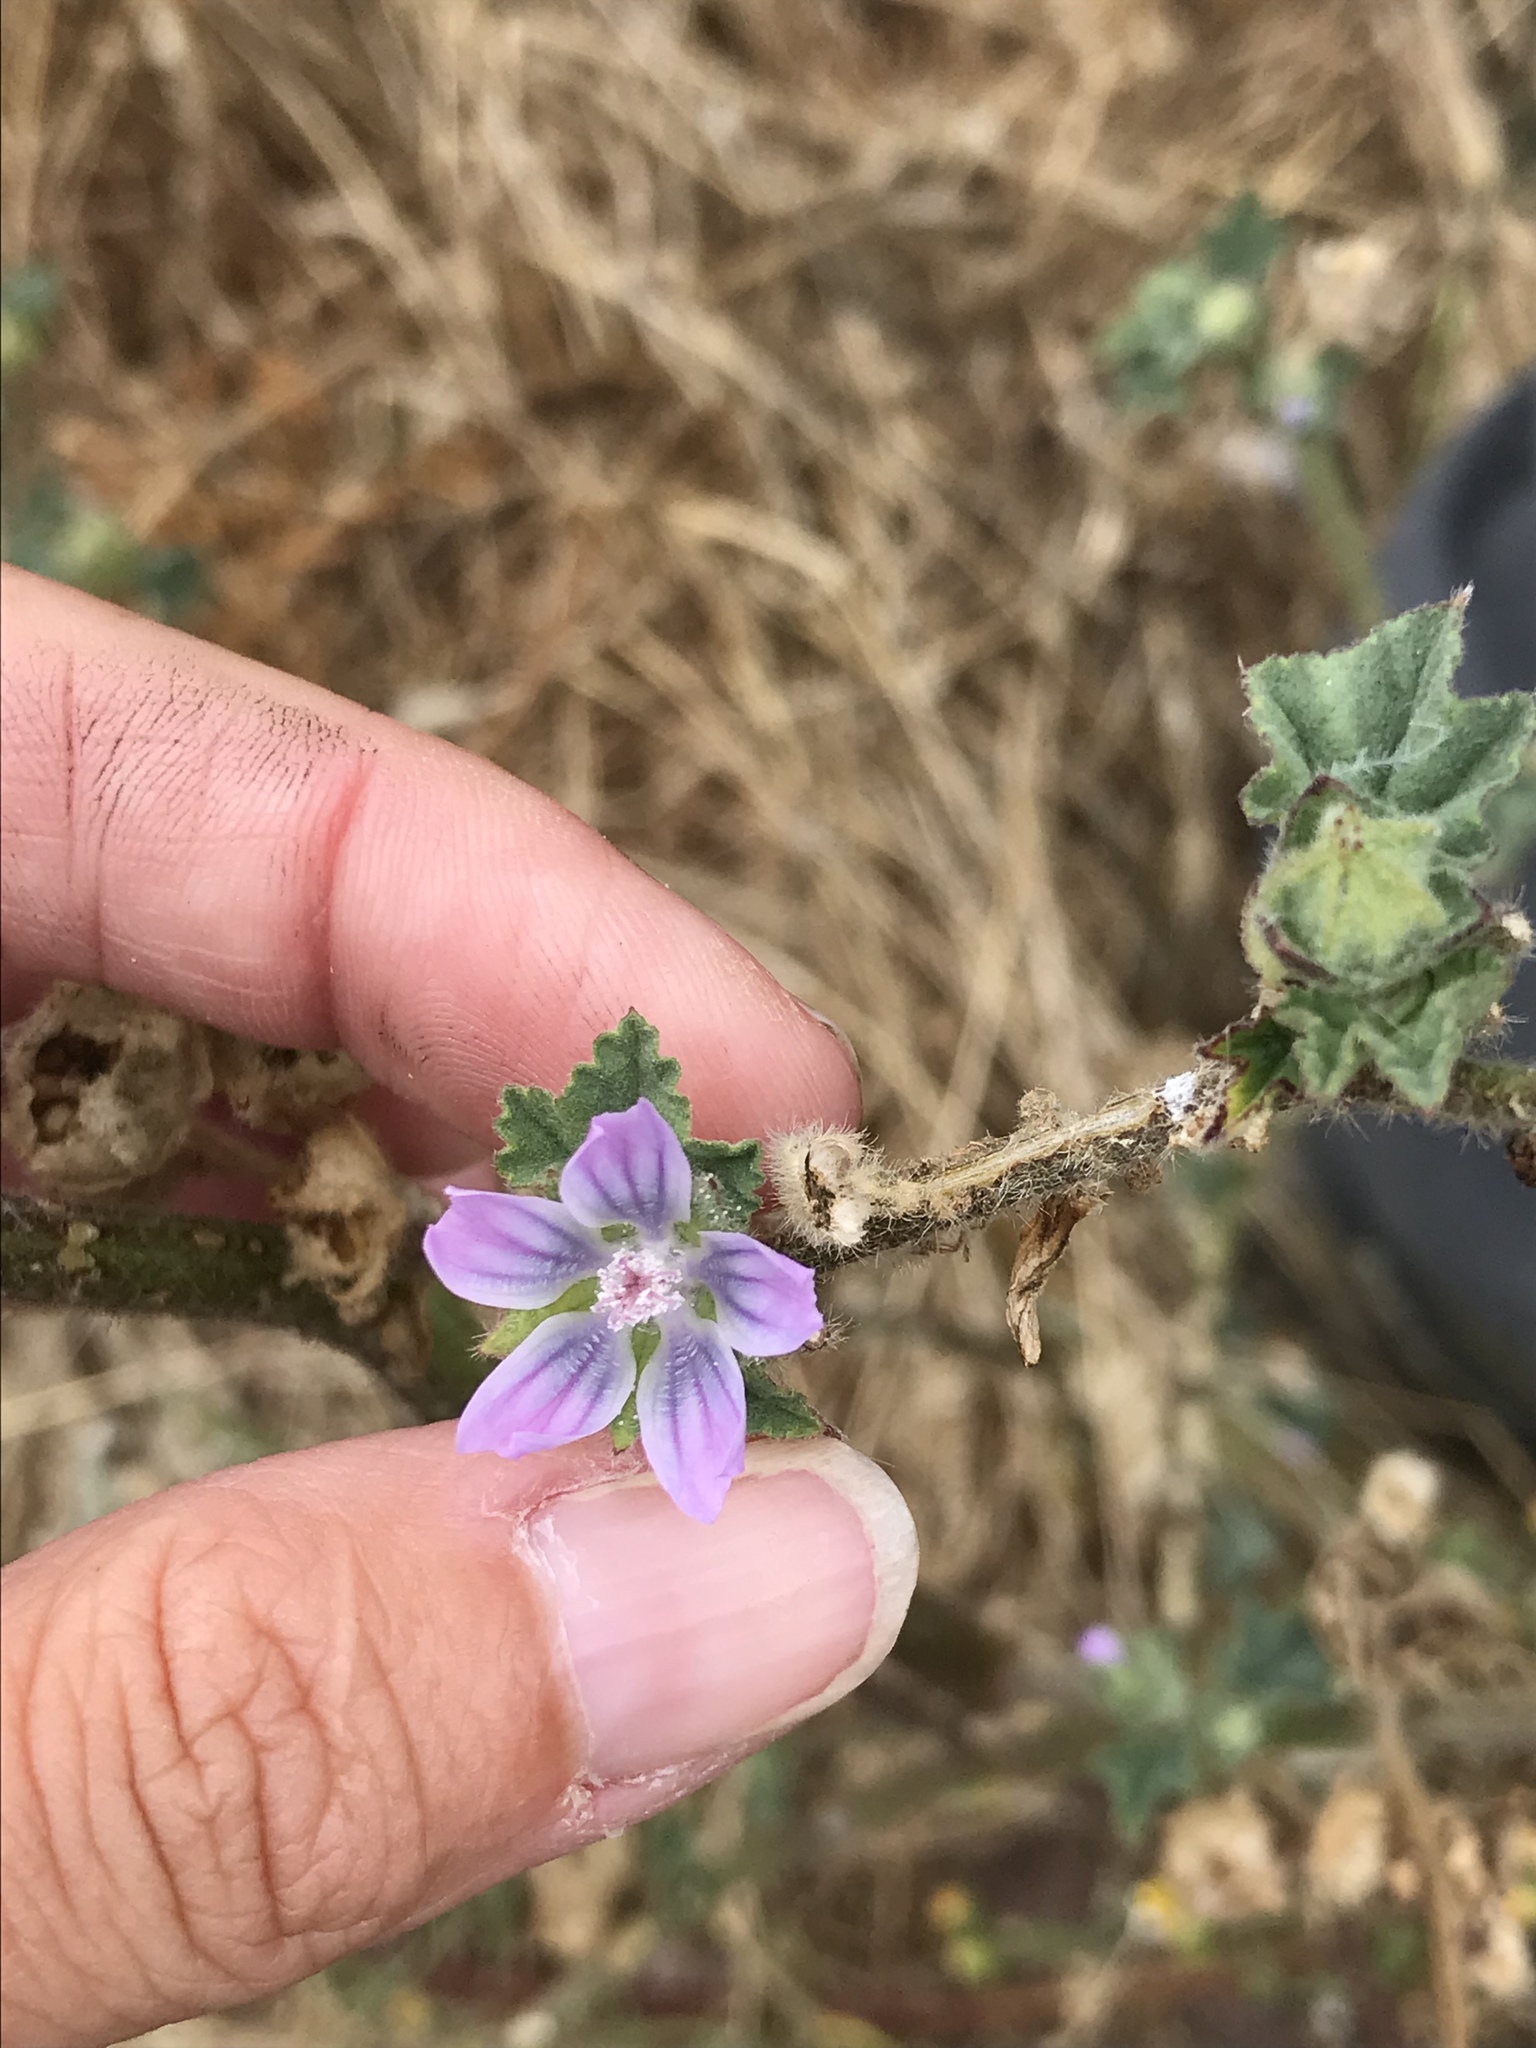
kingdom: Plantae
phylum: Tracheophyta
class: Magnoliopsida
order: Malvales
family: Malvaceae
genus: Malva
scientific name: Malva multiflora
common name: Cheeseweed
